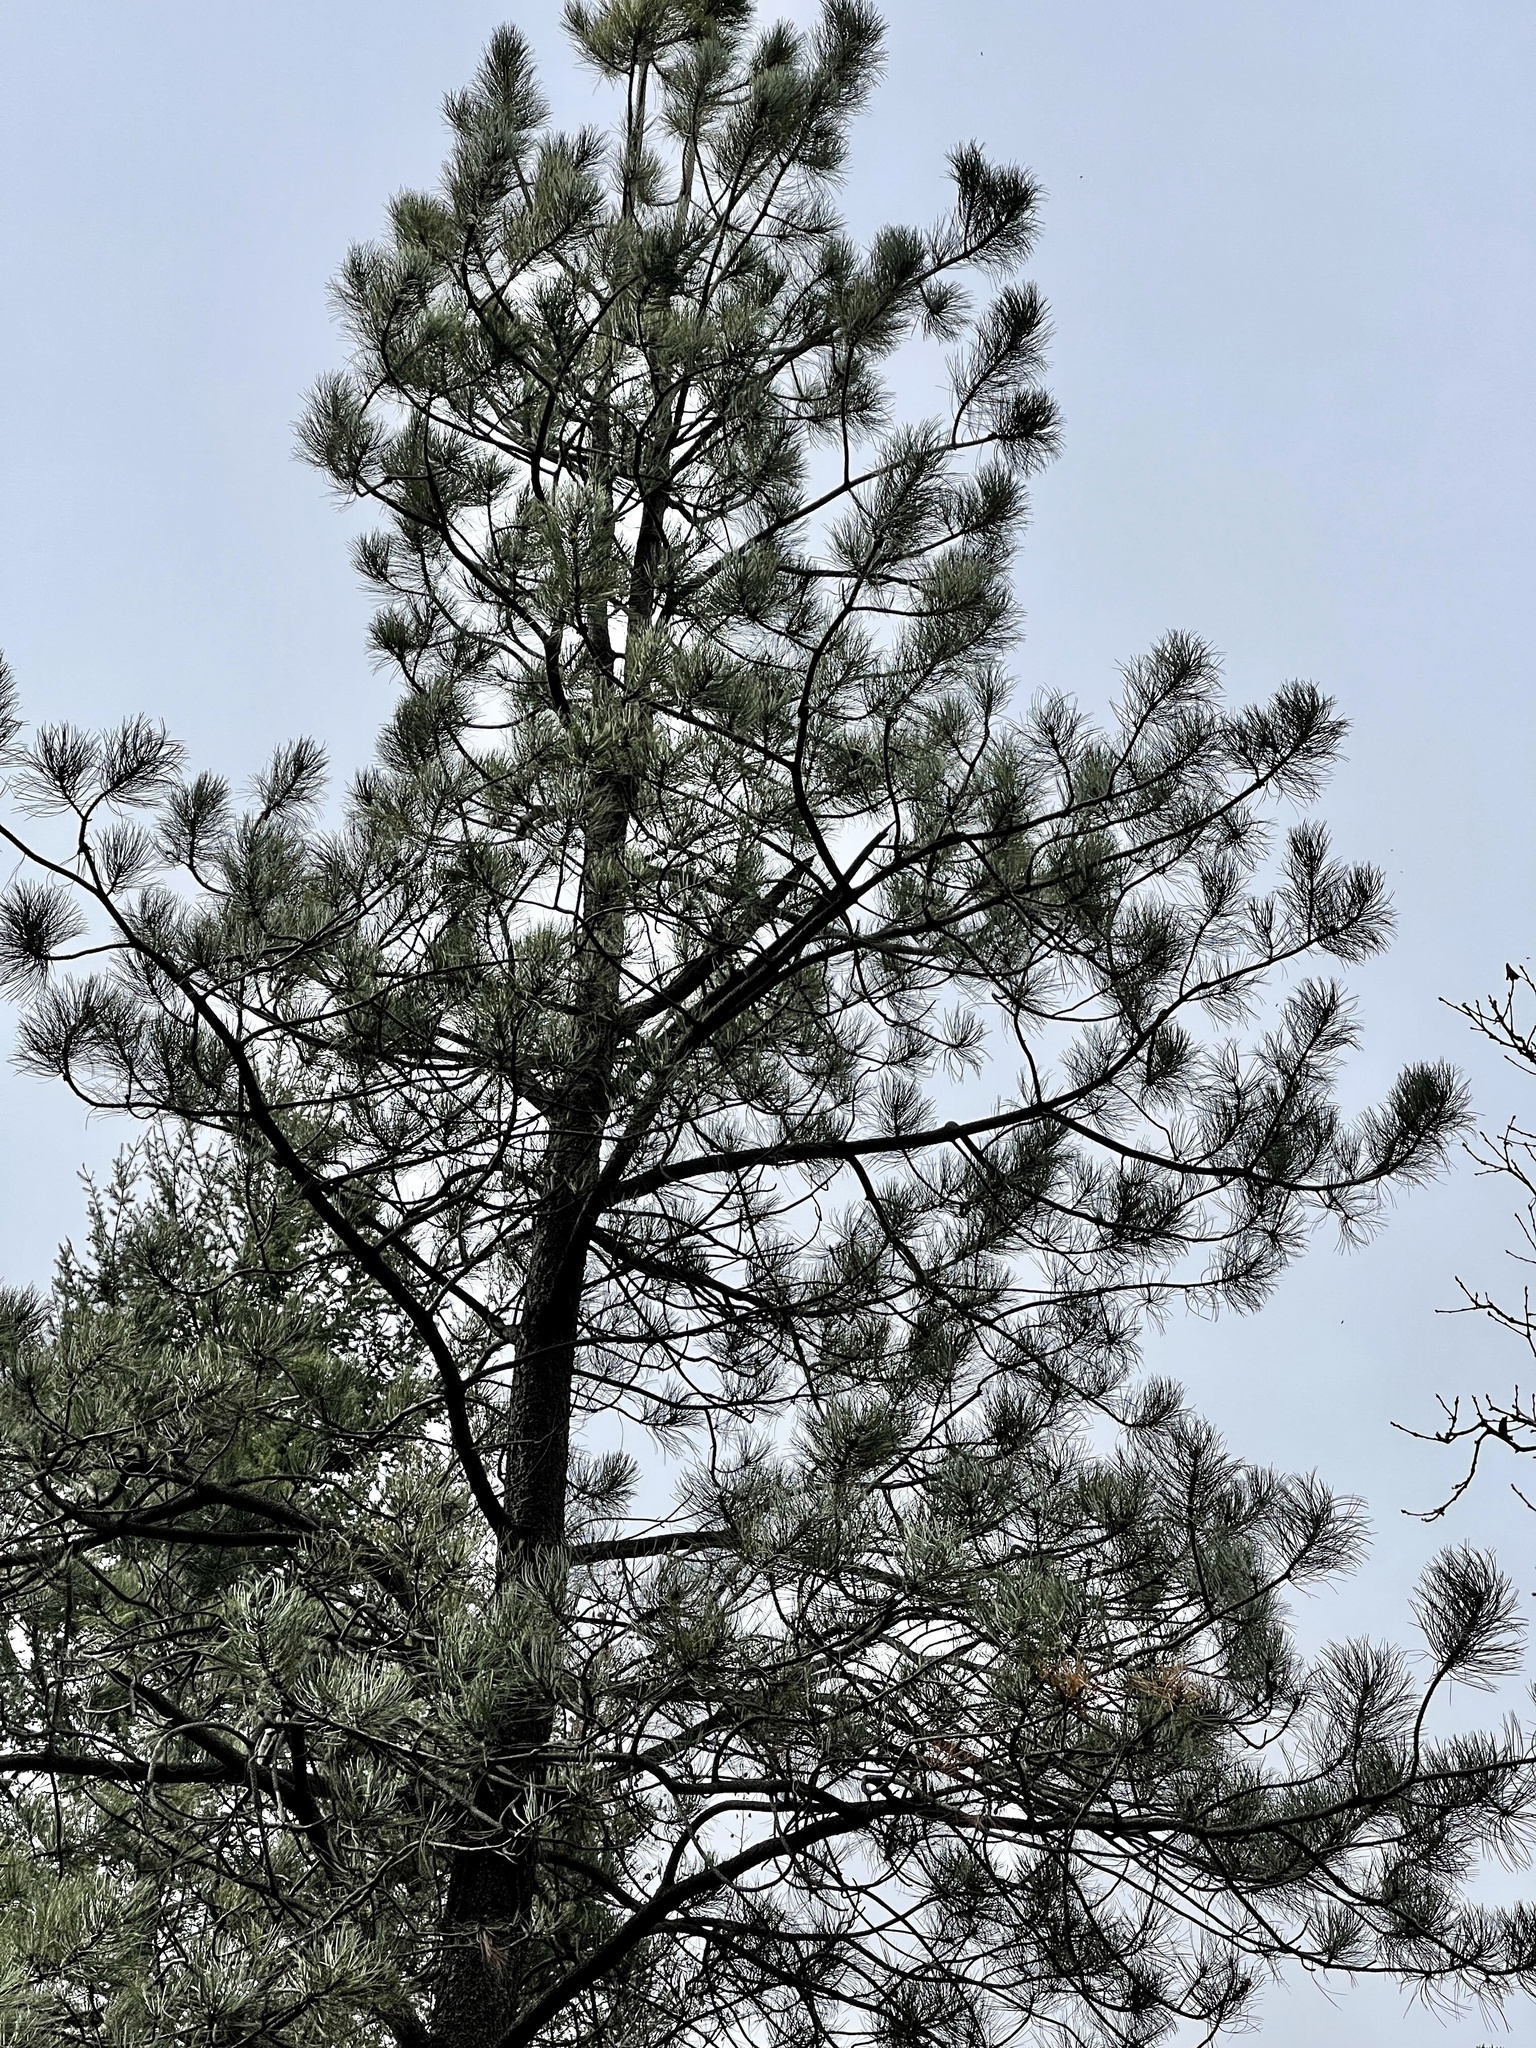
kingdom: Plantae
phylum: Tracheophyta
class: Pinopsida
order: Pinales
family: Pinaceae
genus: Pinus
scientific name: Pinus ponderosa
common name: Western yellow-pine
